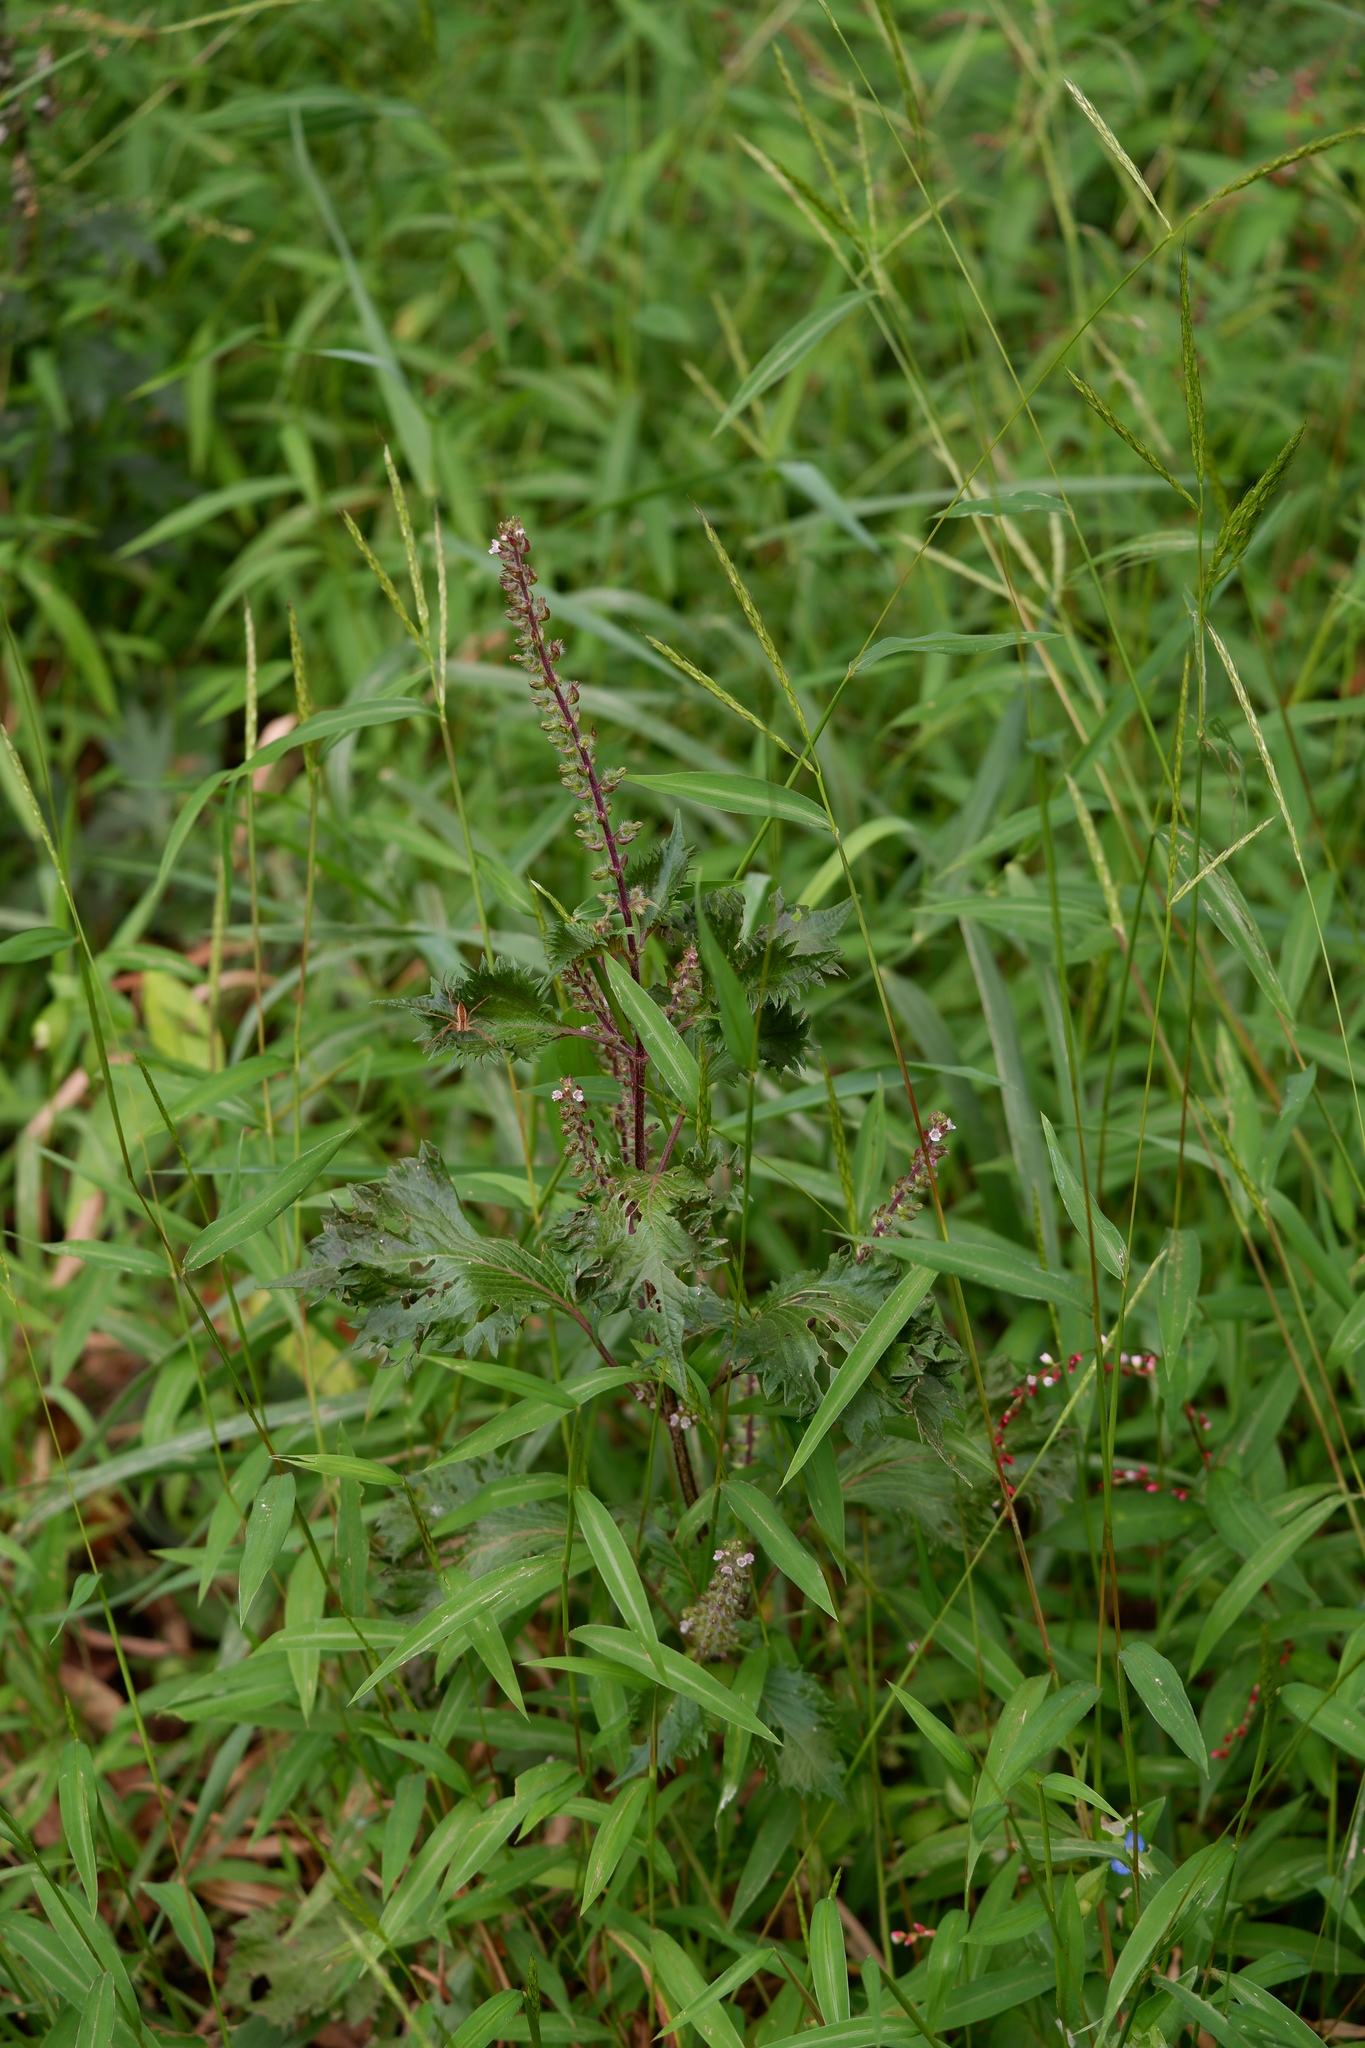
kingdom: Plantae
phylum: Tracheophyta
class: Magnoliopsida
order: Lamiales
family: Lamiaceae
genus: Perilla
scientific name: Perilla frutescens
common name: Perilla
